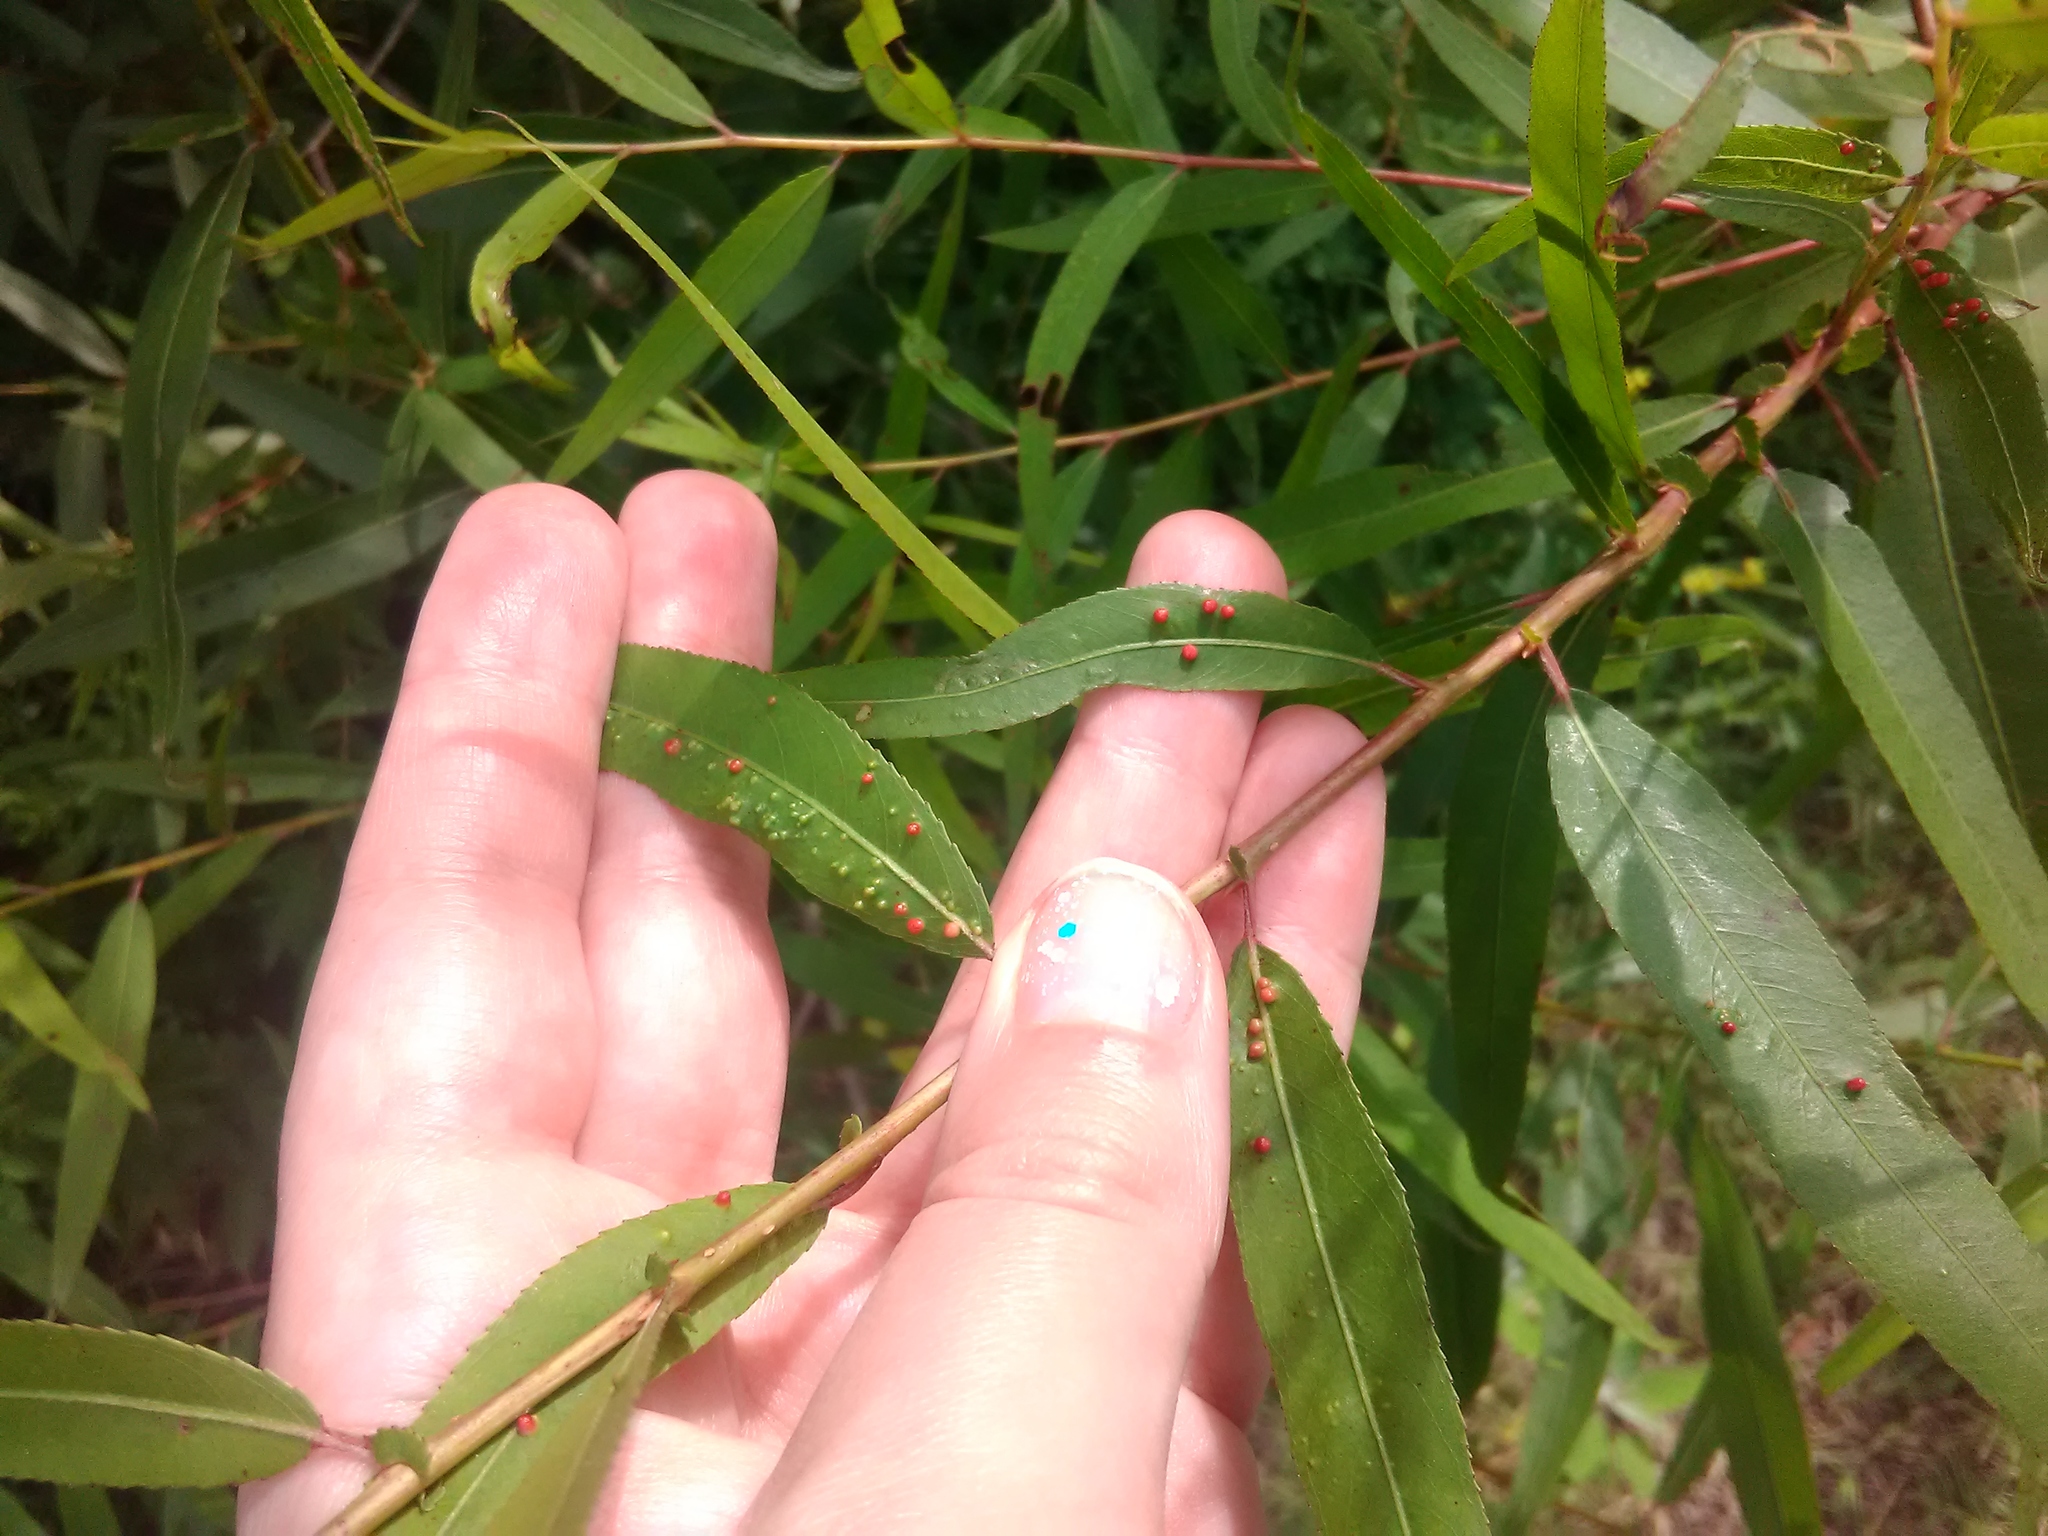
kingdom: Animalia
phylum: Arthropoda
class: Arachnida
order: Trombidiformes
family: Eriophyidae
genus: Aculus
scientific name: Aculus tetanothrix
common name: Willow bead gall mite
